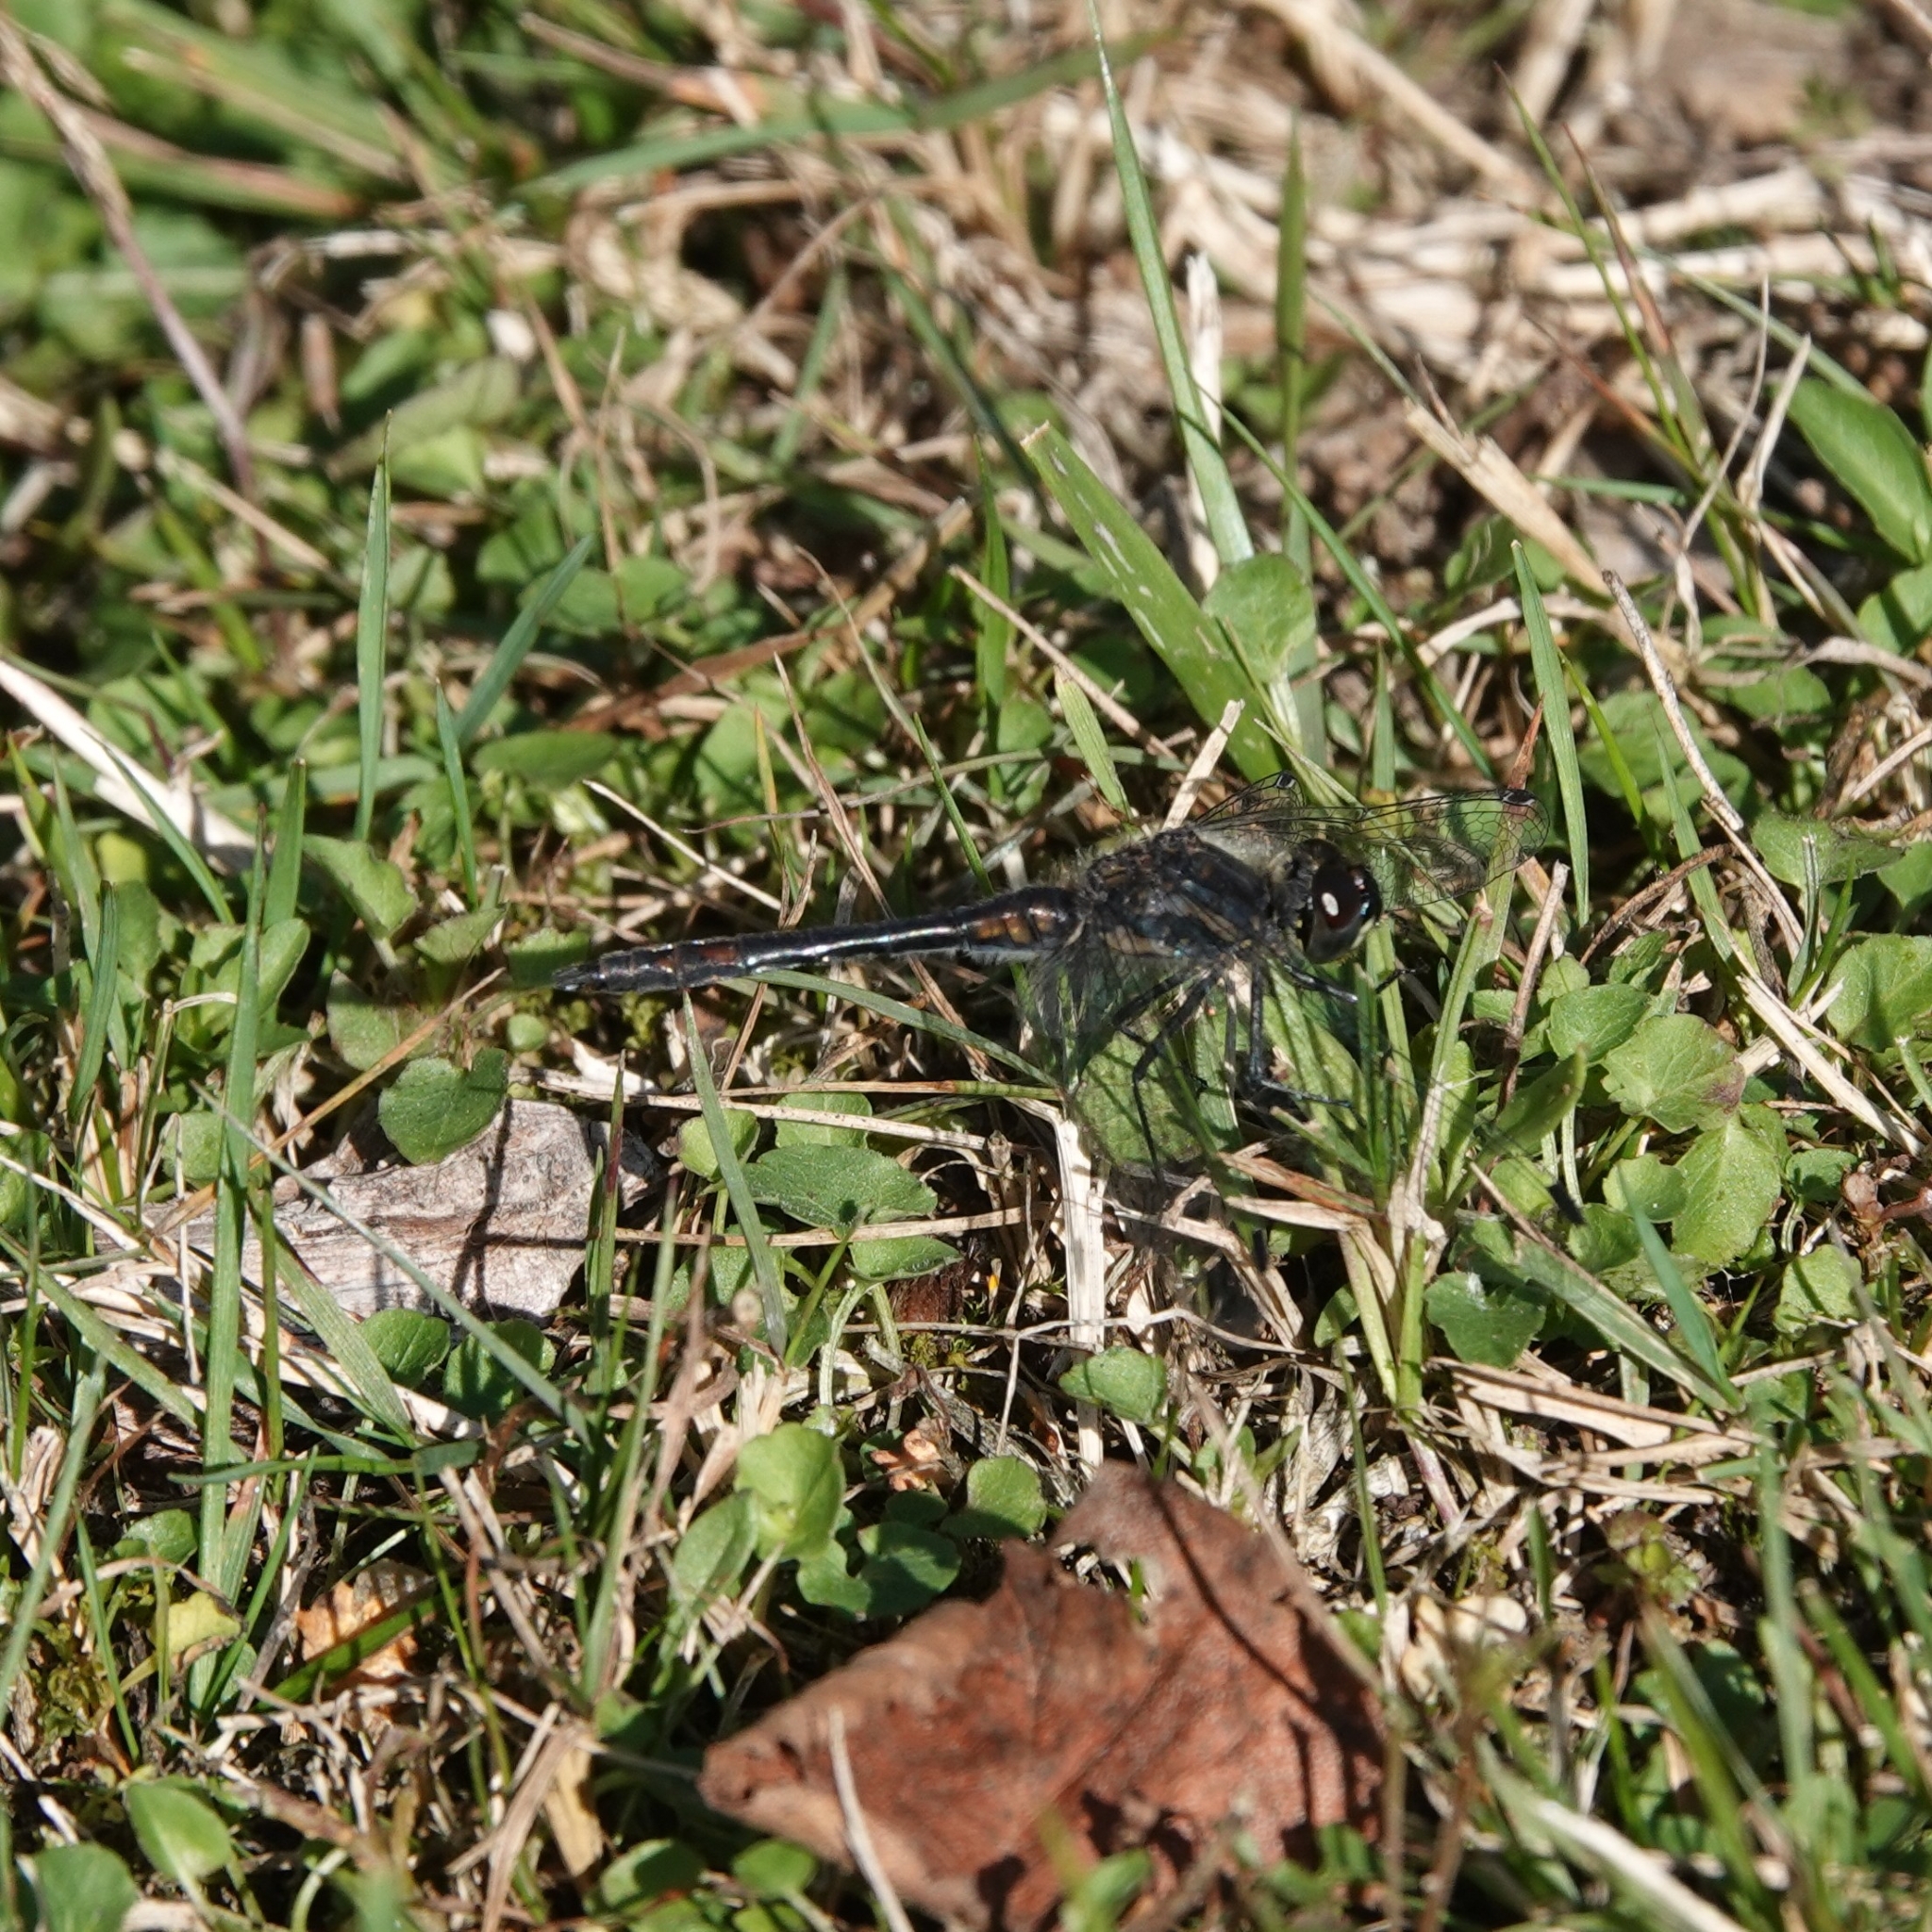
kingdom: Animalia
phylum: Arthropoda
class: Insecta
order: Odonata
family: Libellulidae
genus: Sympetrum
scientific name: Sympetrum danae
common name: Black darter
